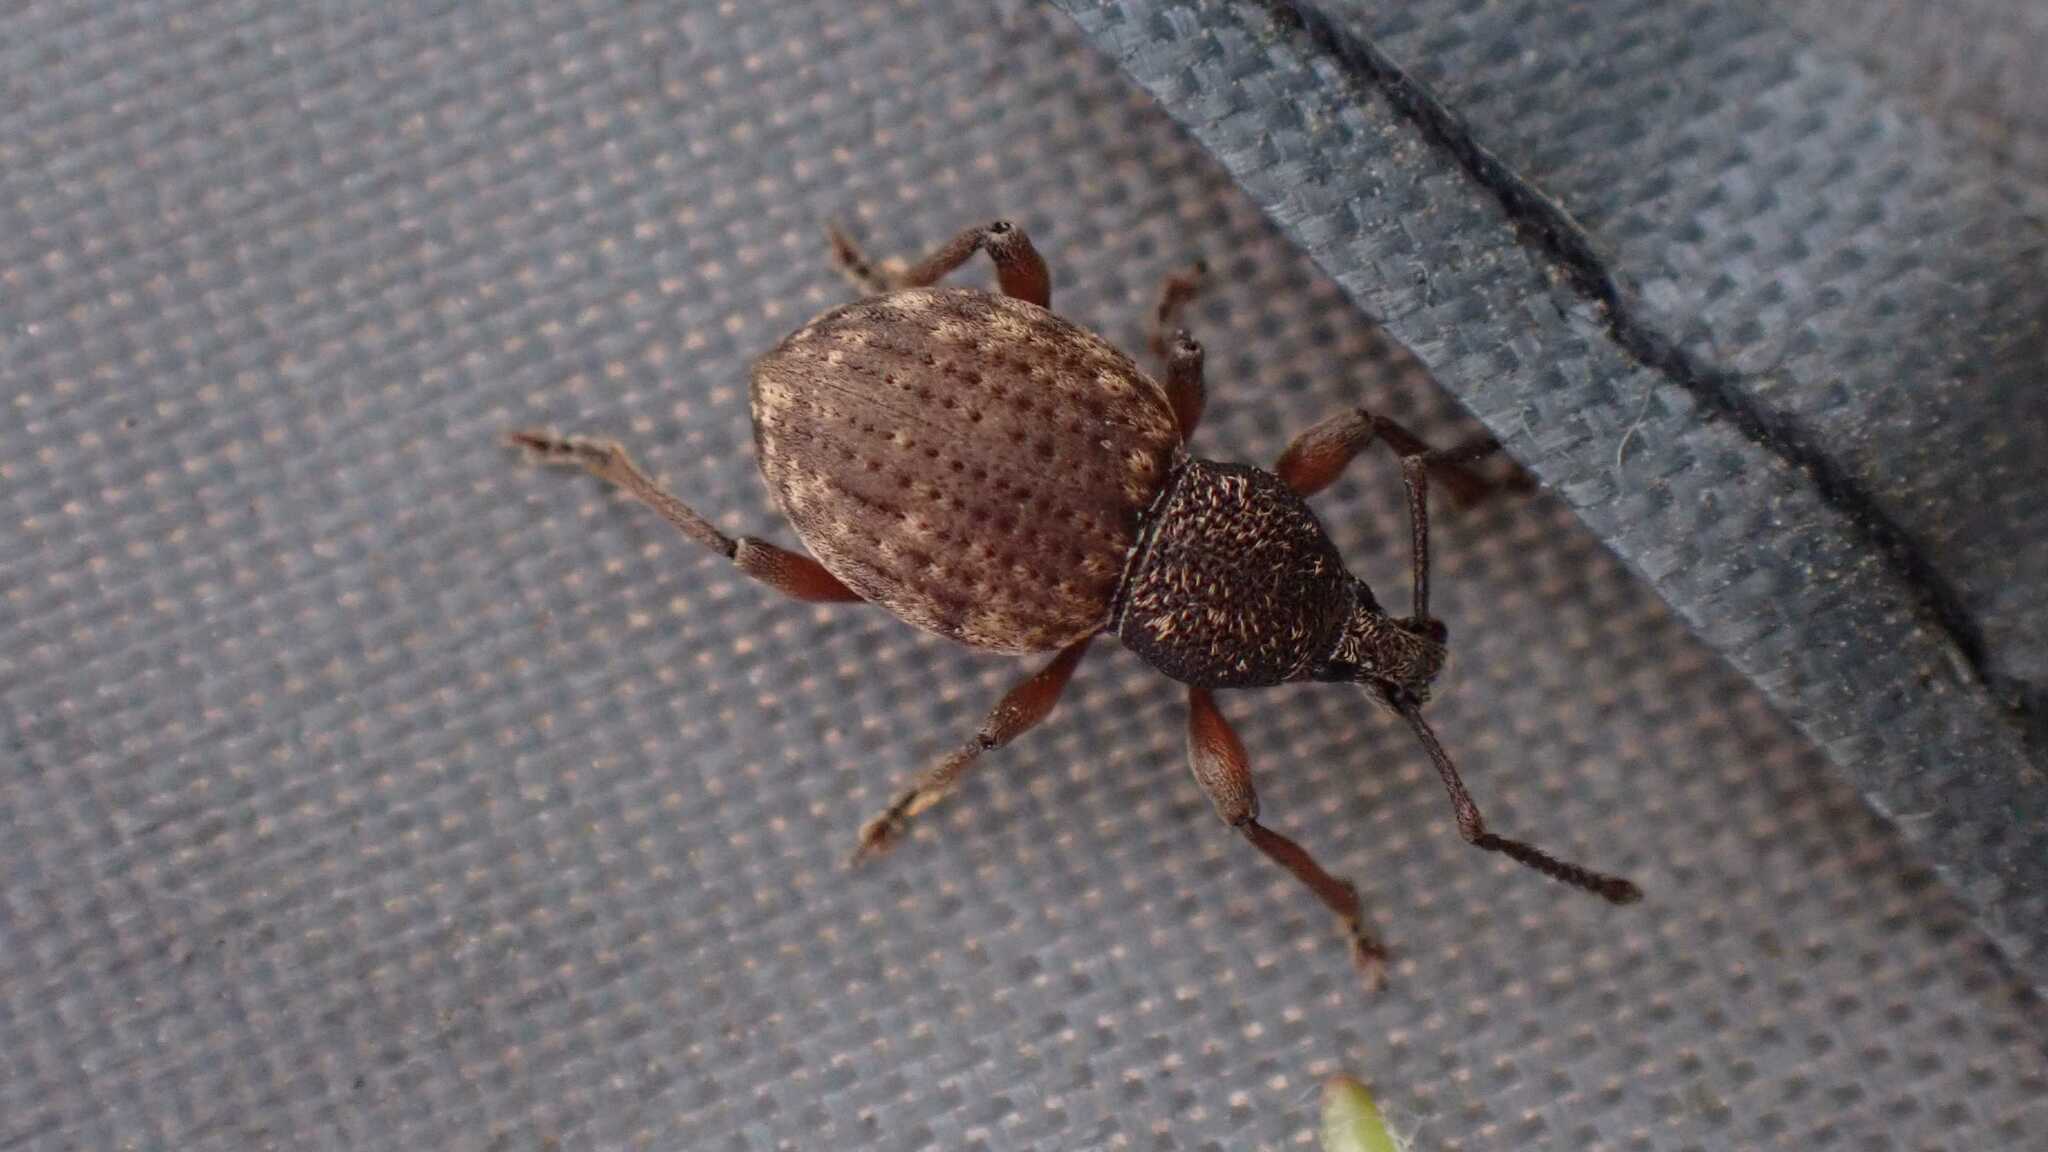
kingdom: Animalia
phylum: Arthropoda
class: Insecta
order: Coleoptera
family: Curculionidae
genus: Otiorhynchus
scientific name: Otiorhynchus raucus
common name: Weevil
